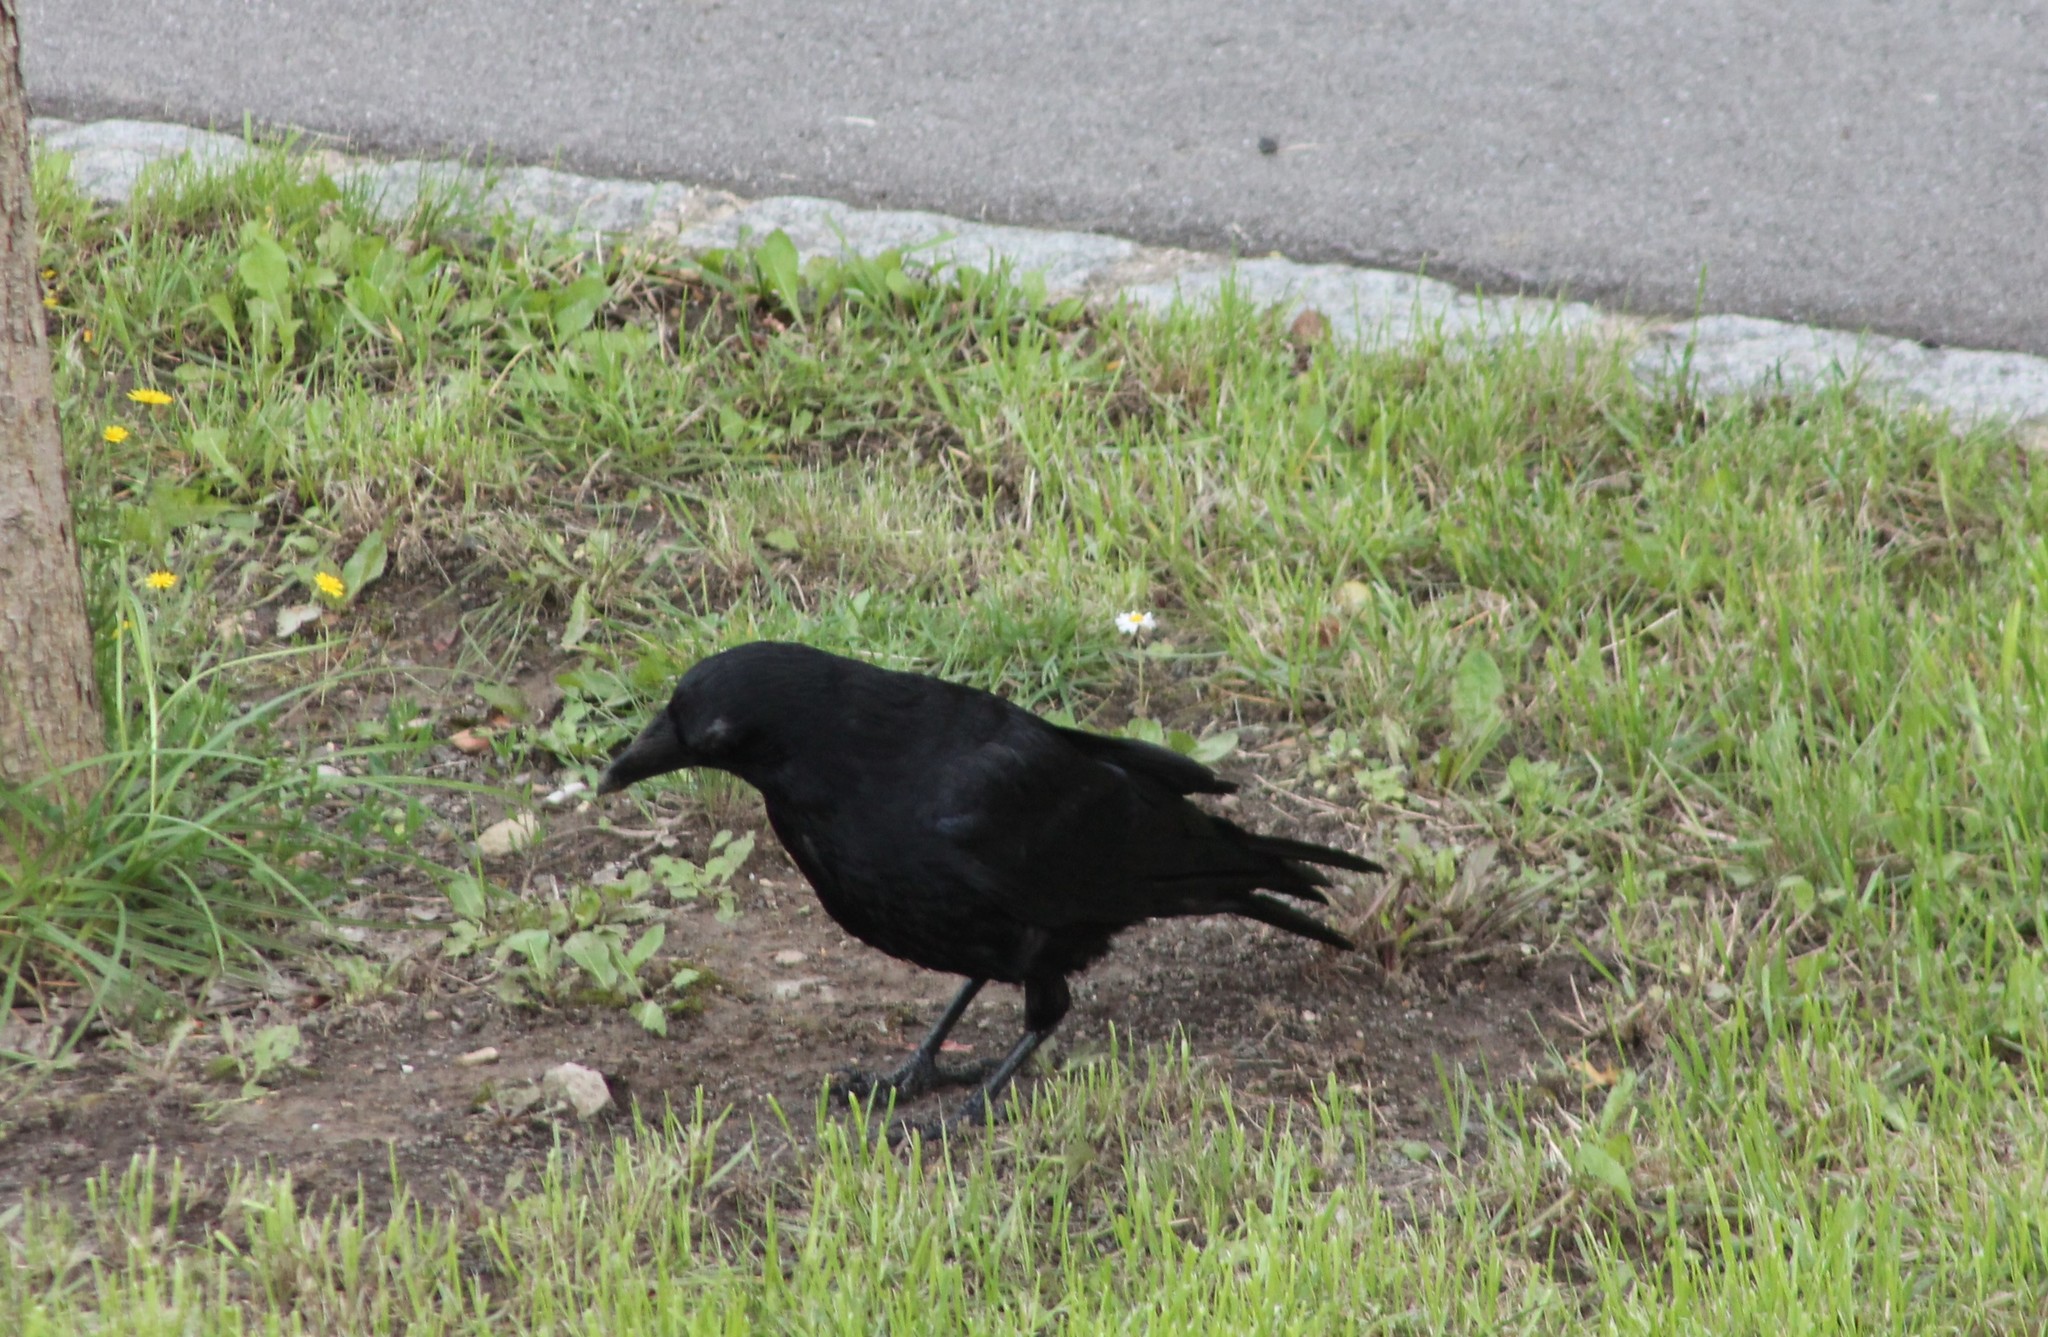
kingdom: Animalia
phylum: Chordata
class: Aves
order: Passeriformes
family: Corvidae
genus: Corvus
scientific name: Corvus corone
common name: Carrion crow
